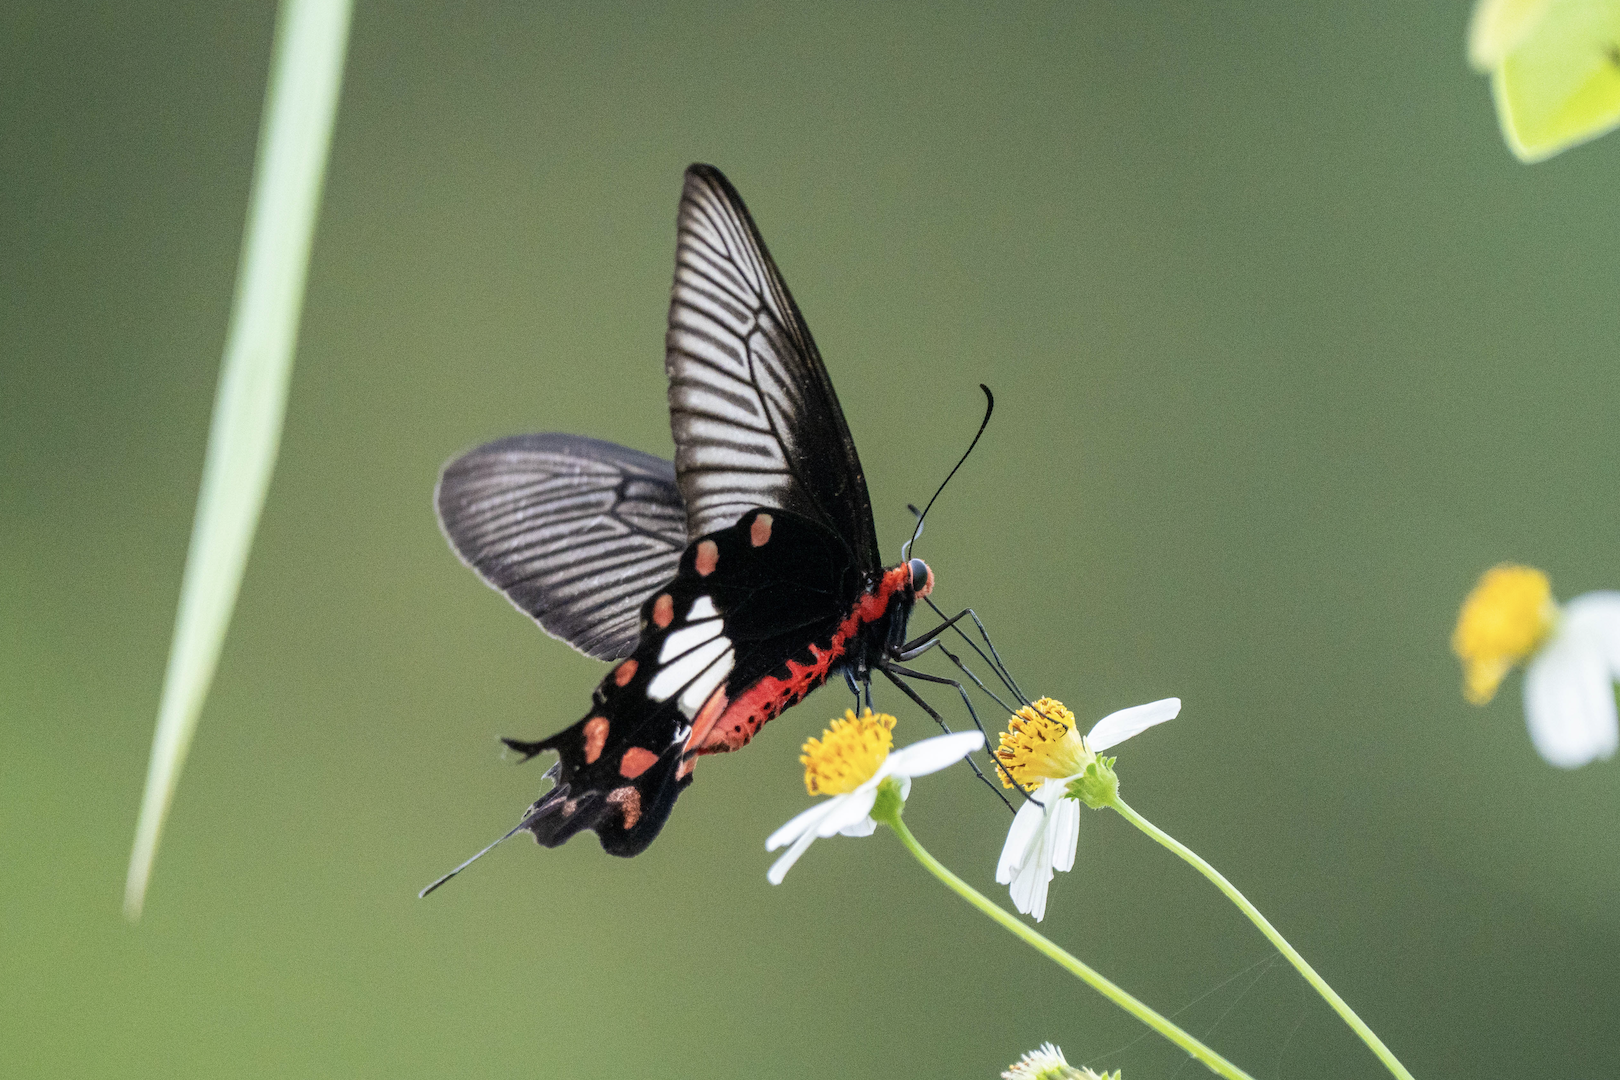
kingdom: Animalia
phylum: Arthropoda
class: Insecta
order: Lepidoptera
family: Papilionidae
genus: Pachliopta
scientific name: Pachliopta aristolochiae
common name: Common rose
